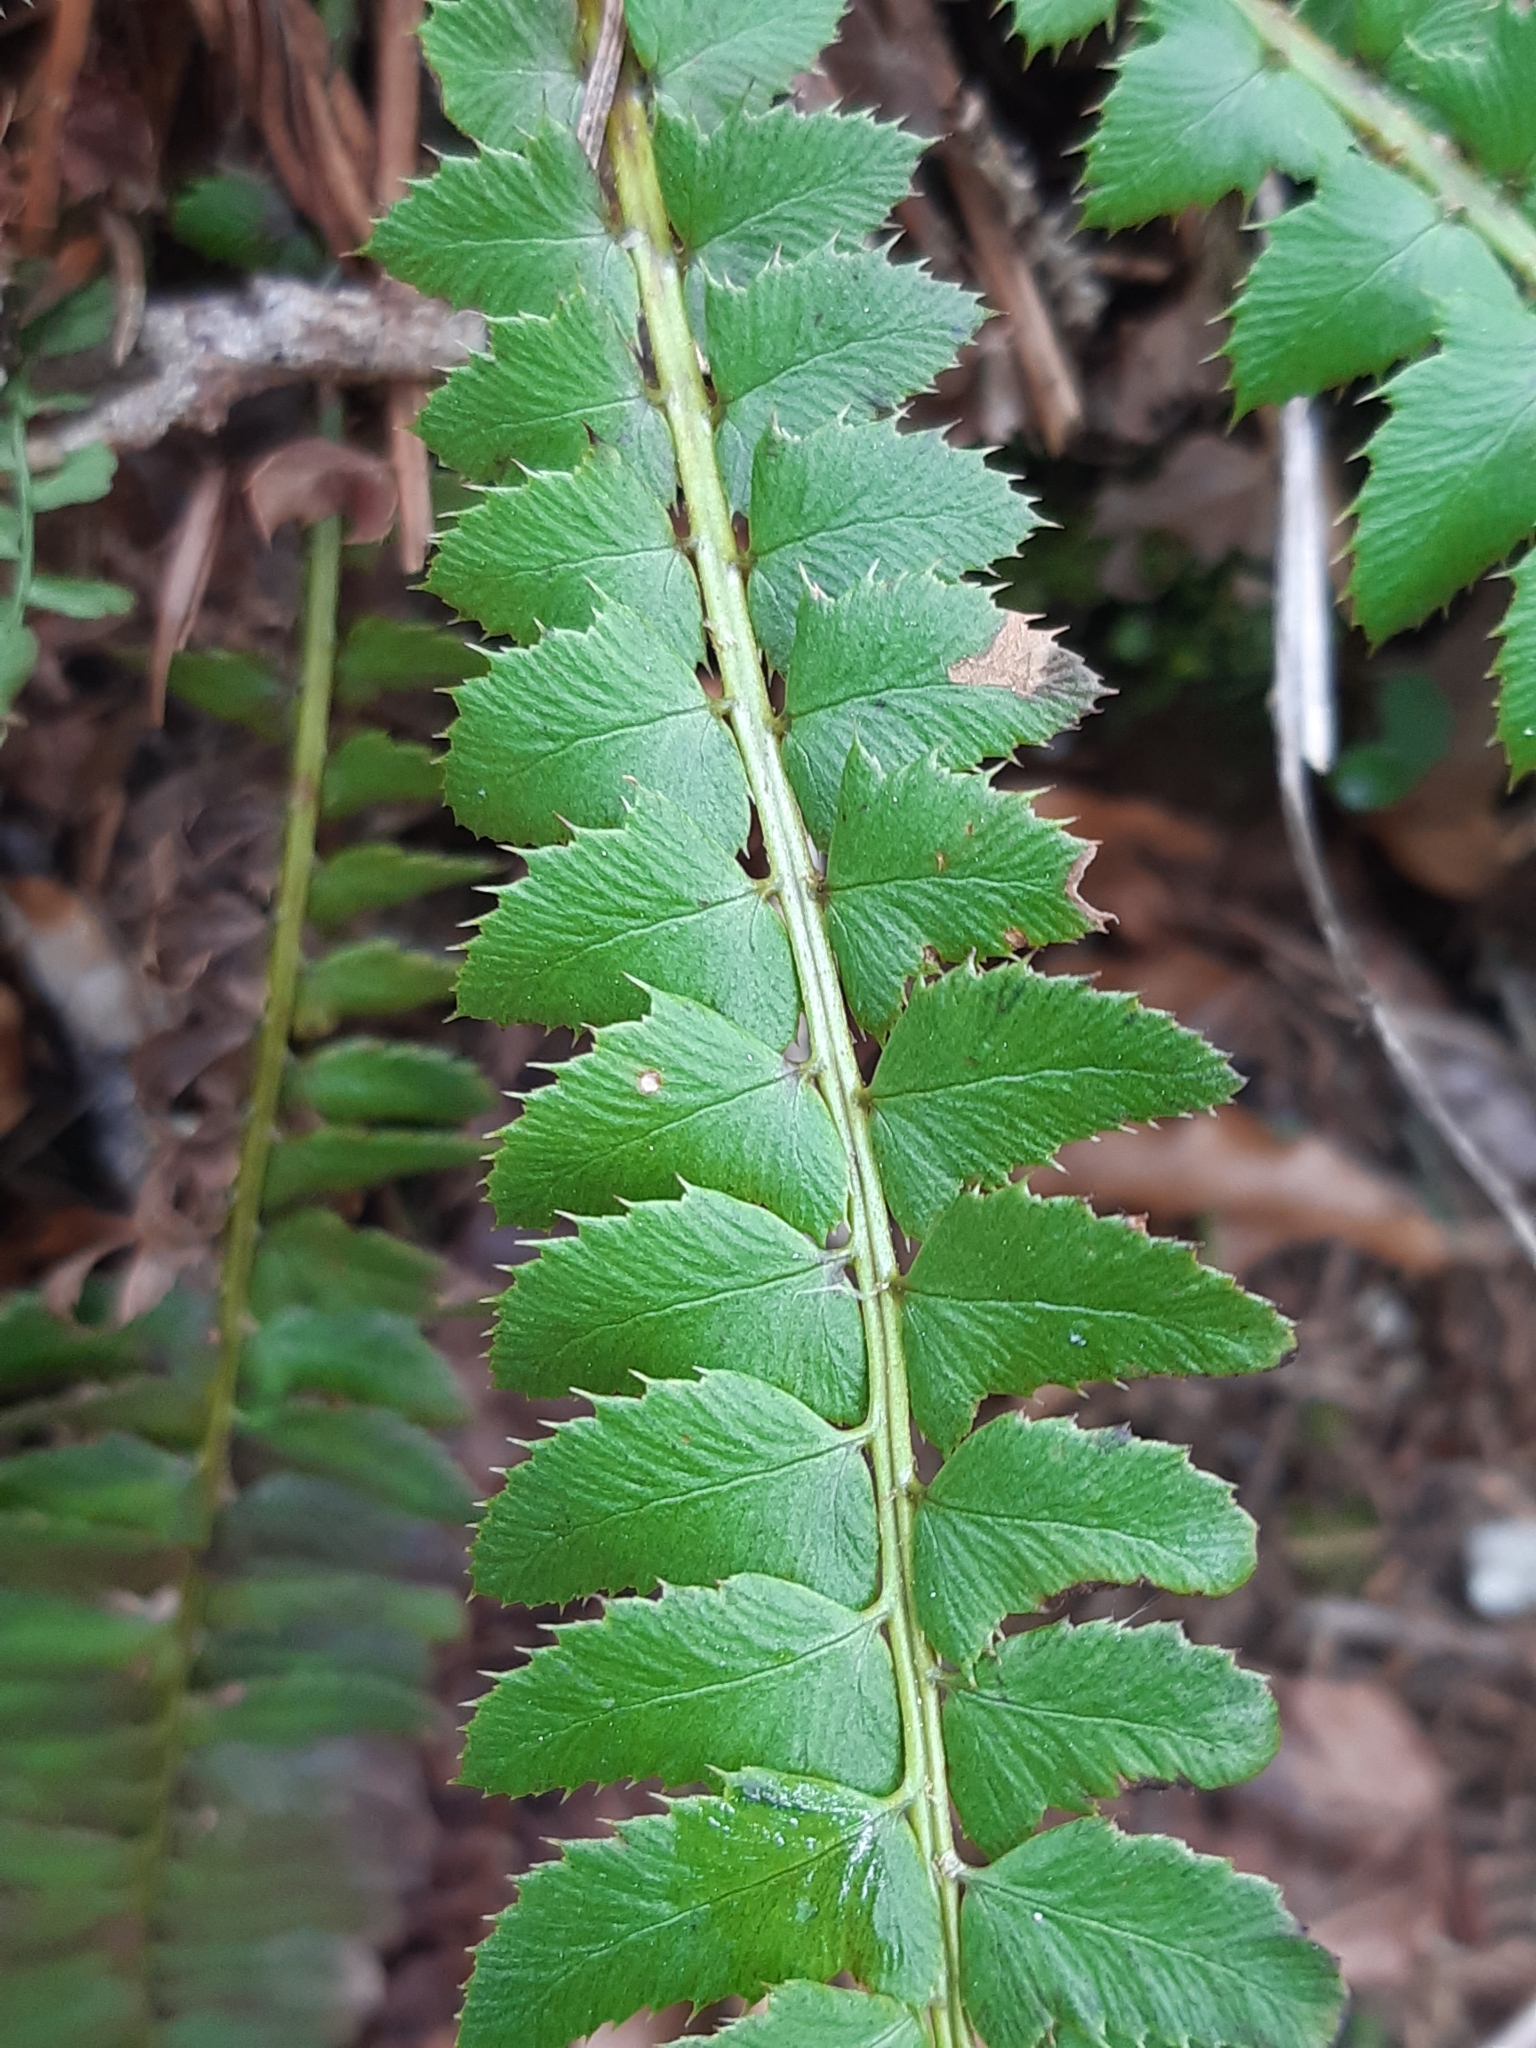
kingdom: Plantae
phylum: Tracheophyta
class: Polypodiopsida
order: Polypodiales
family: Dryopteridaceae
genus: Polystichum
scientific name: Polystichum lonchitis
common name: Holly fern
